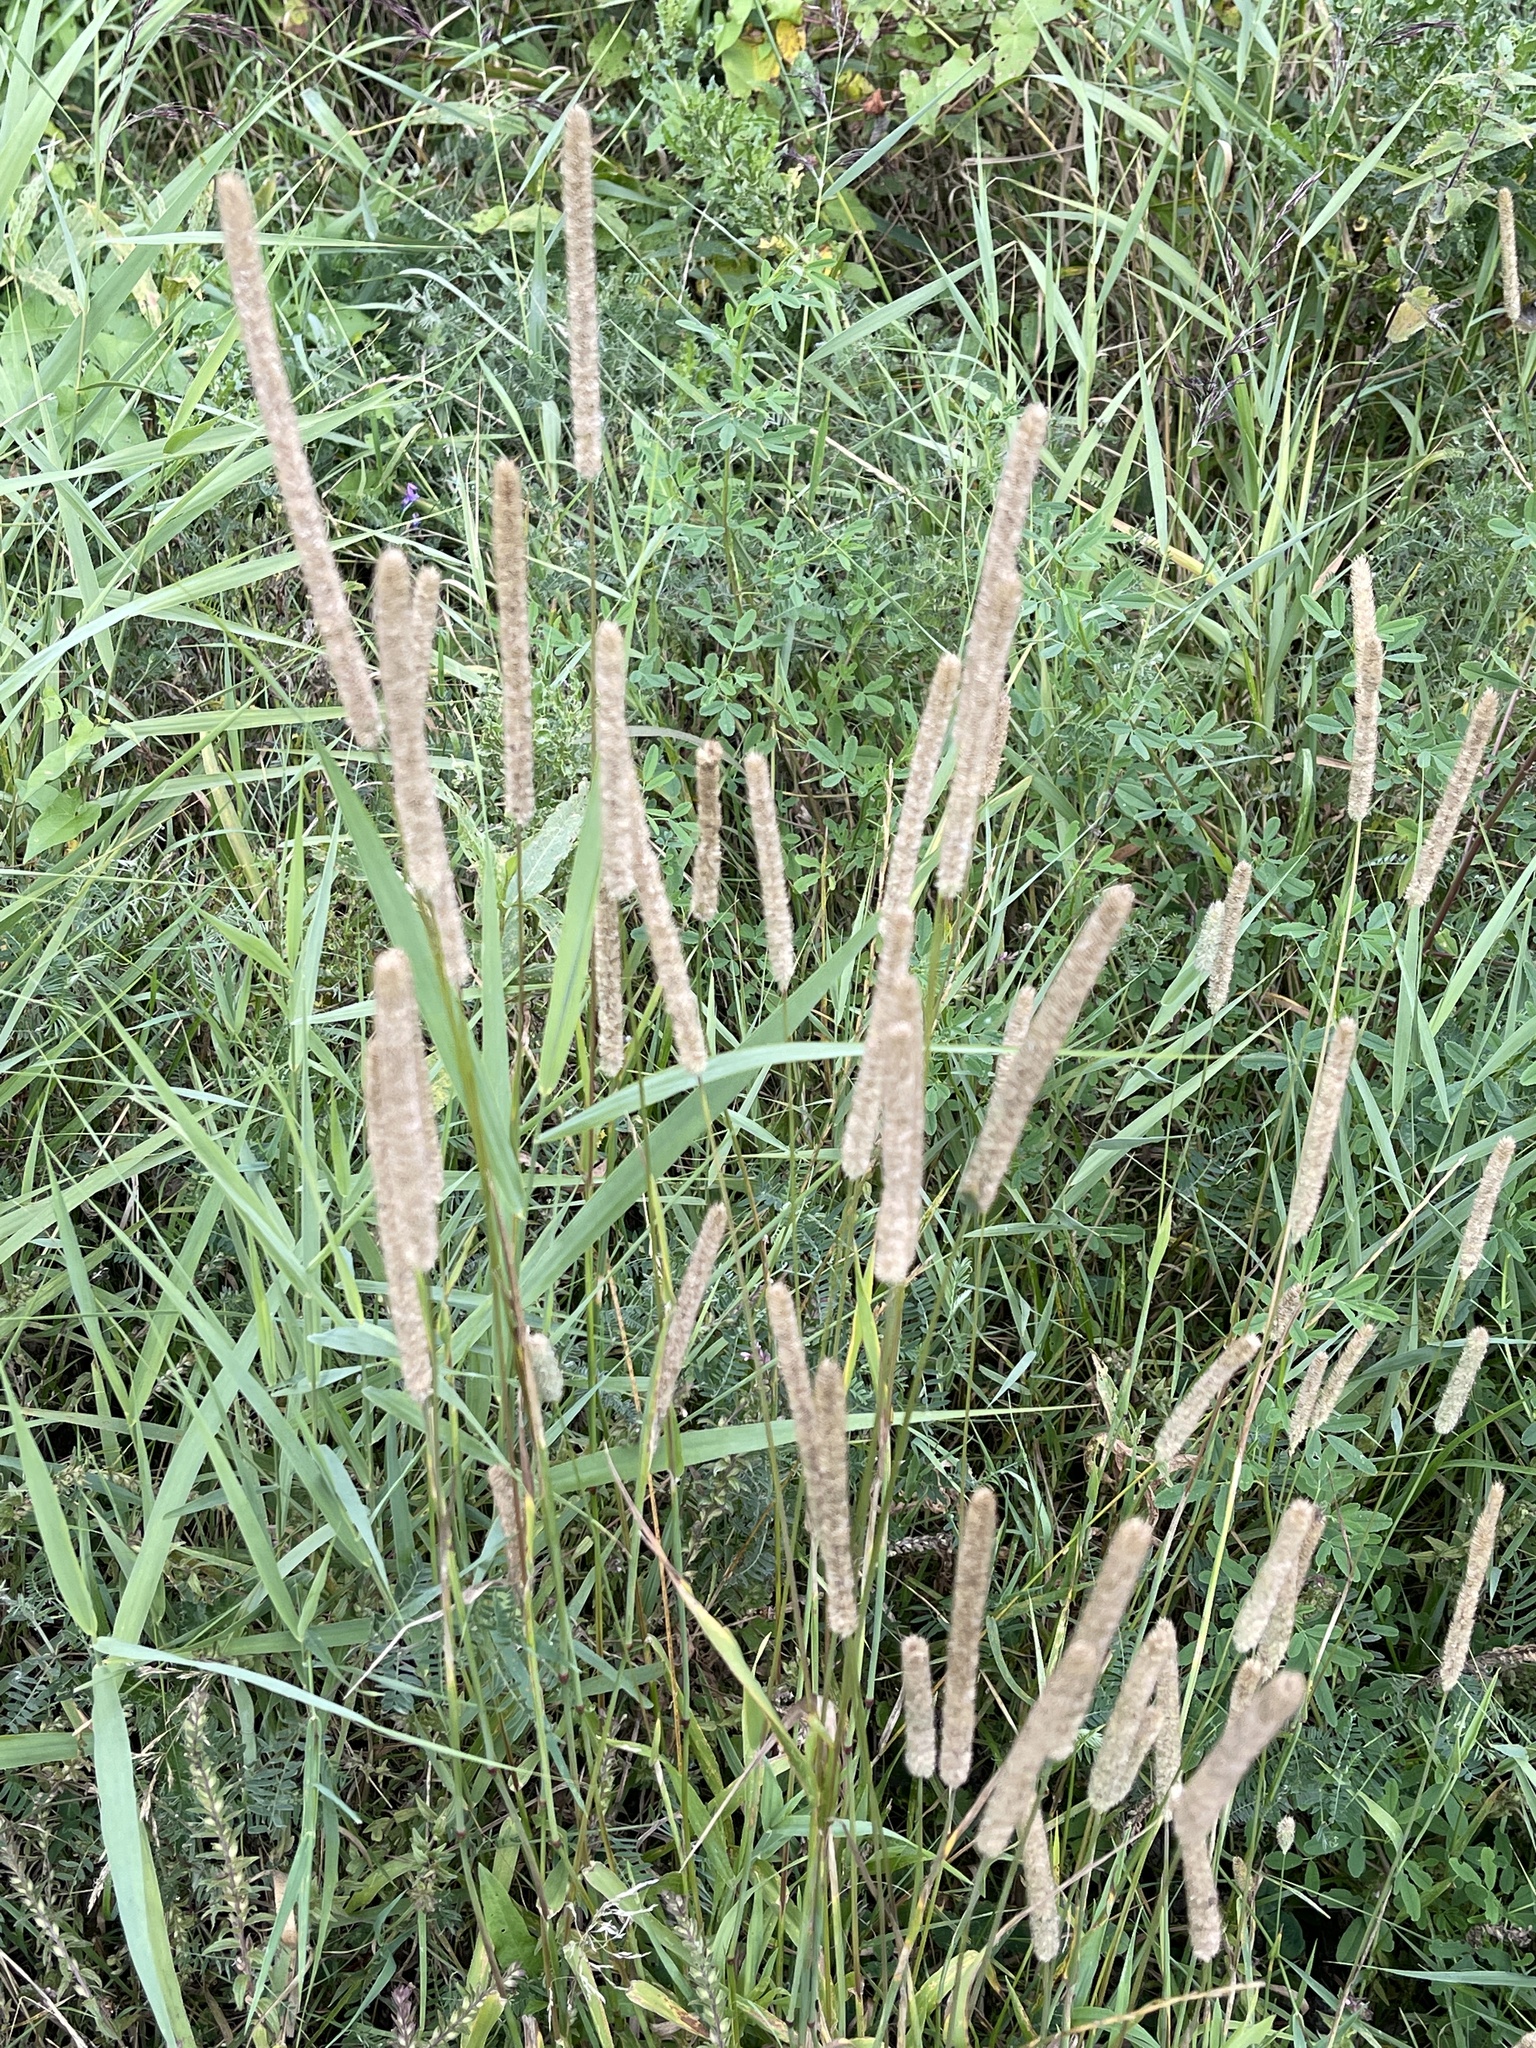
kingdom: Plantae
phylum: Tracheophyta
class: Liliopsida
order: Poales
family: Poaceae
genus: Phleum
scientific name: Phleum pratense
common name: Timothy grass
